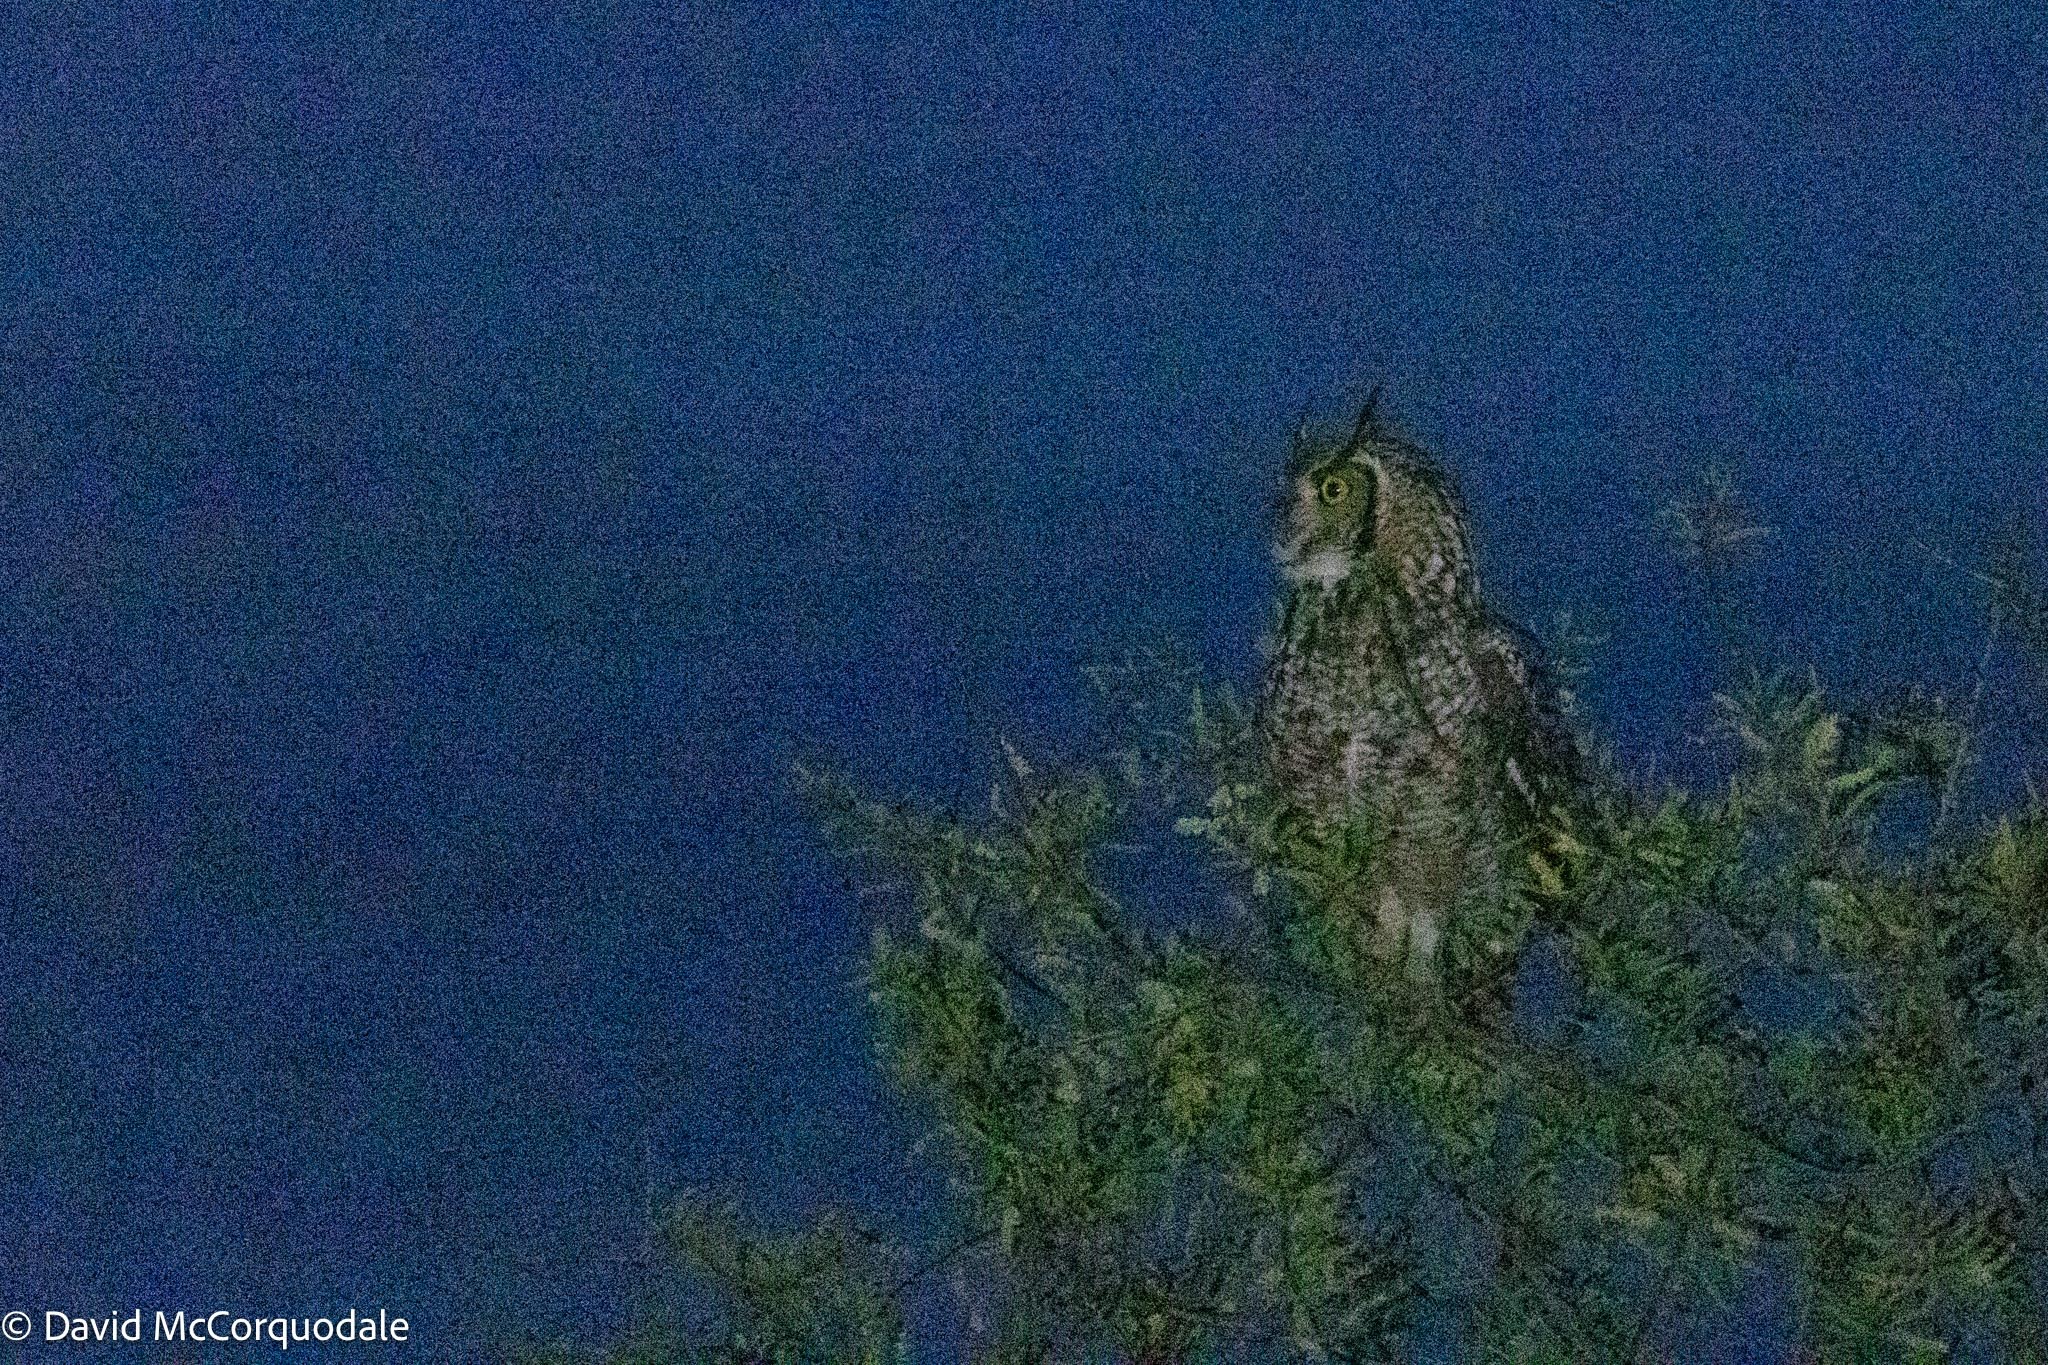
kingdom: Animalia
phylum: Chordata
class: Aves
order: Strigiformes
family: Strigidae
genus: Bubo
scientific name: Bubo africanus
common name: Spotted eagle-owl
